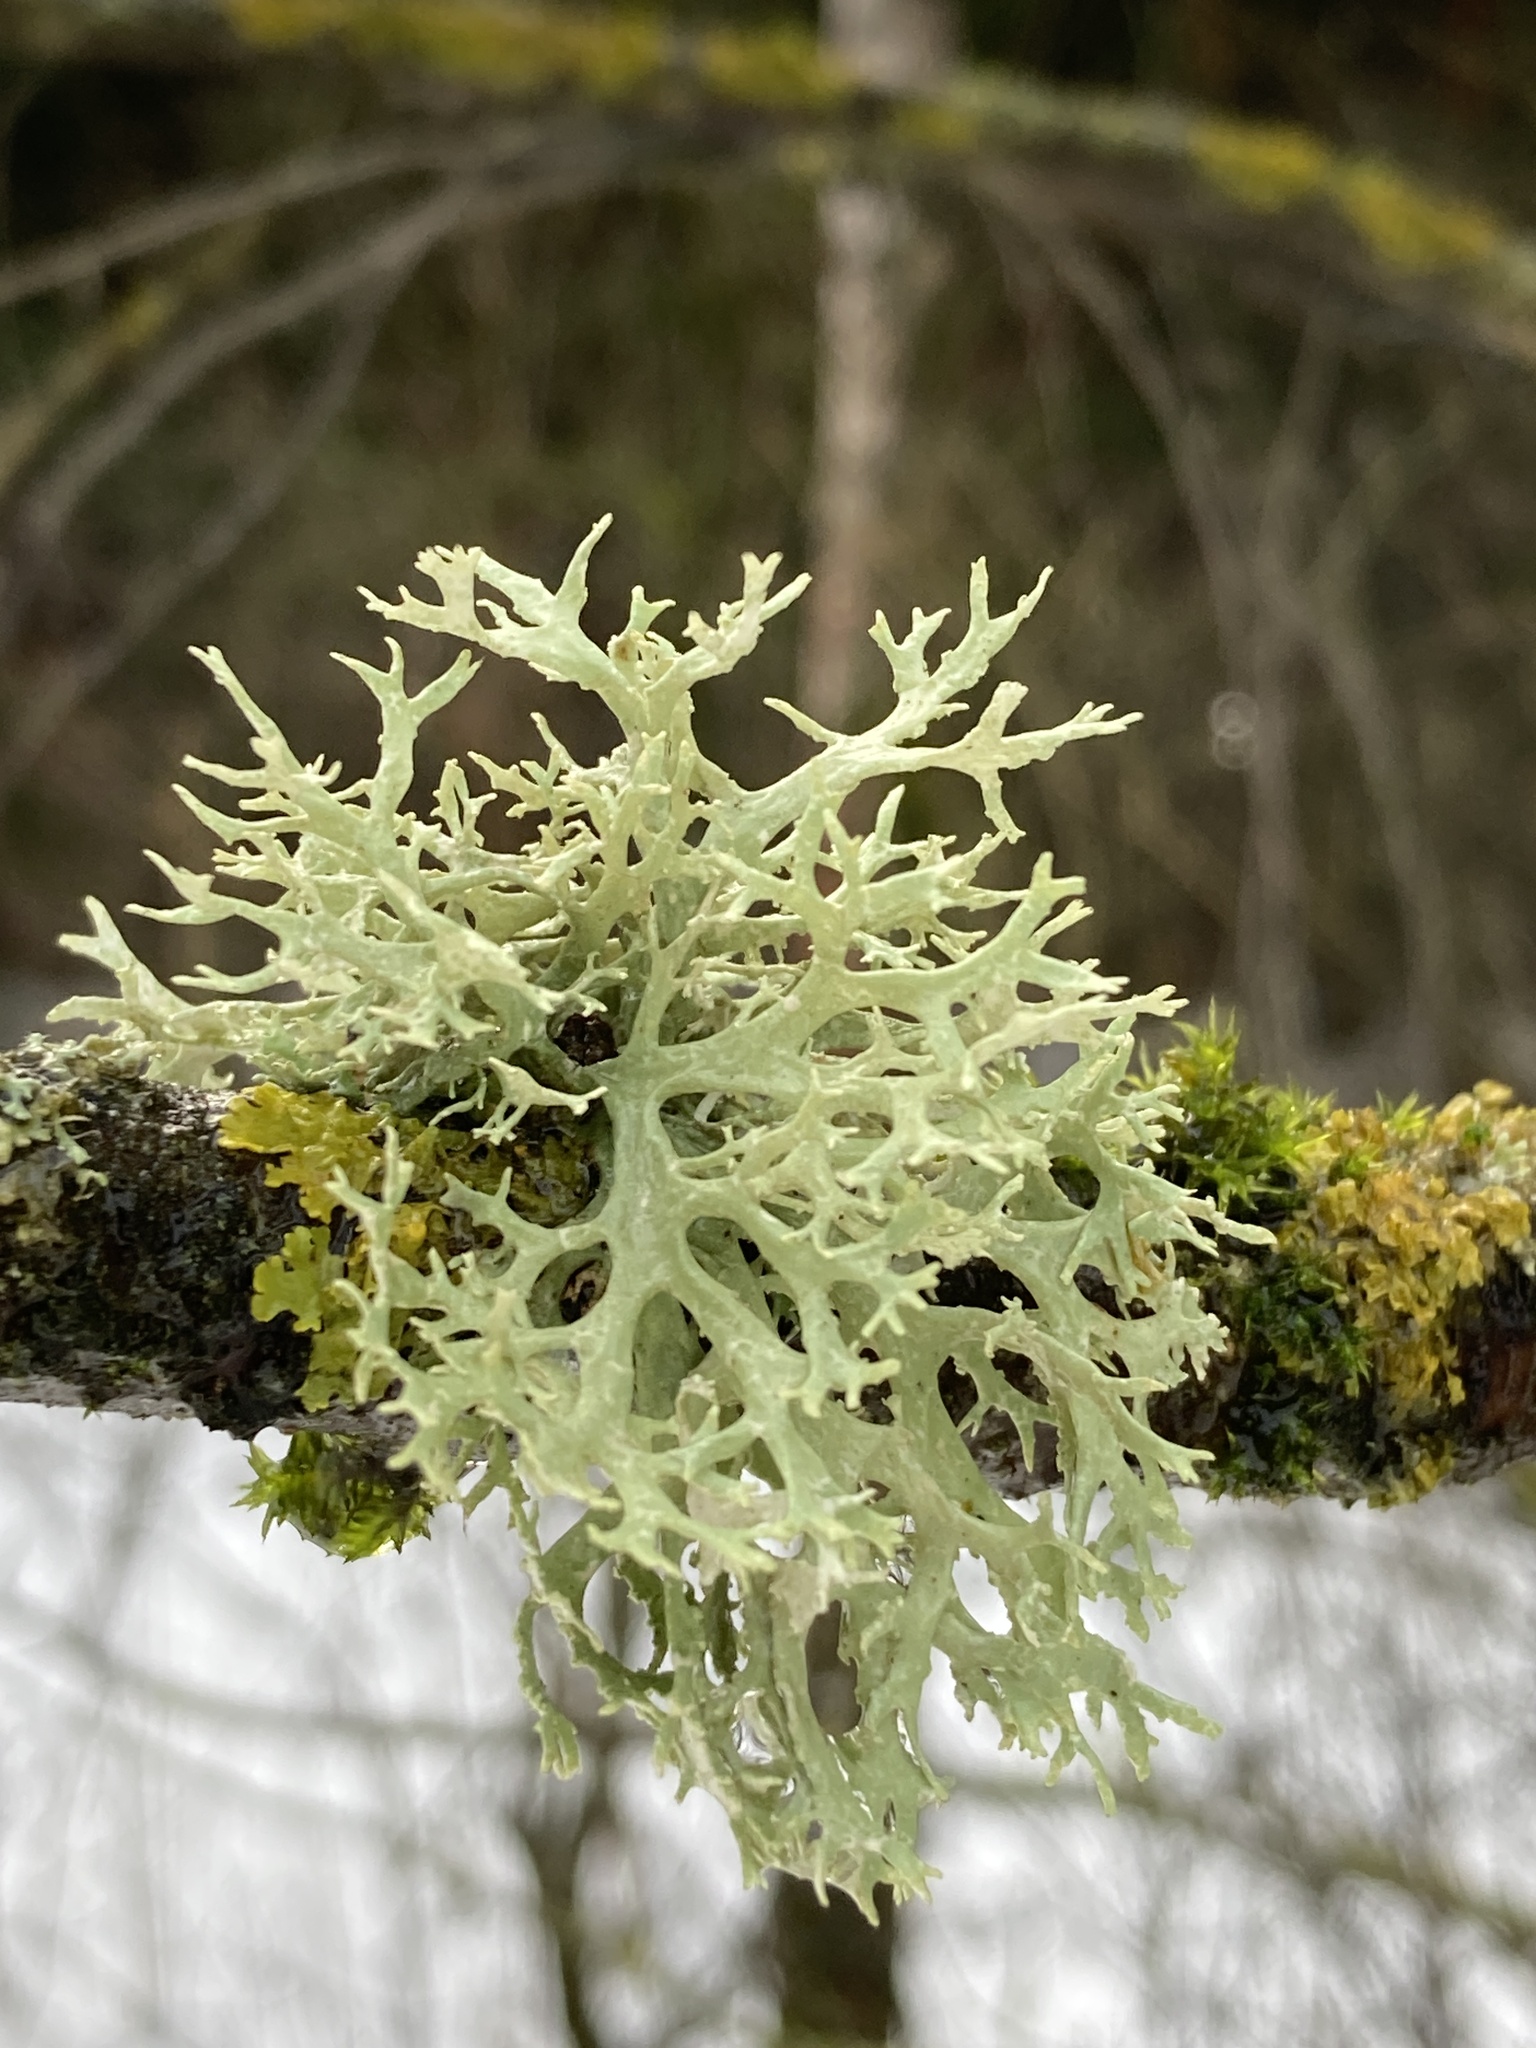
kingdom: Fungi
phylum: Ascomycota
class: Lecanoromycetes
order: Lecanorales
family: Parmeliaceae
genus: Evernia
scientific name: Evernia prunastri
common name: Oak moss
